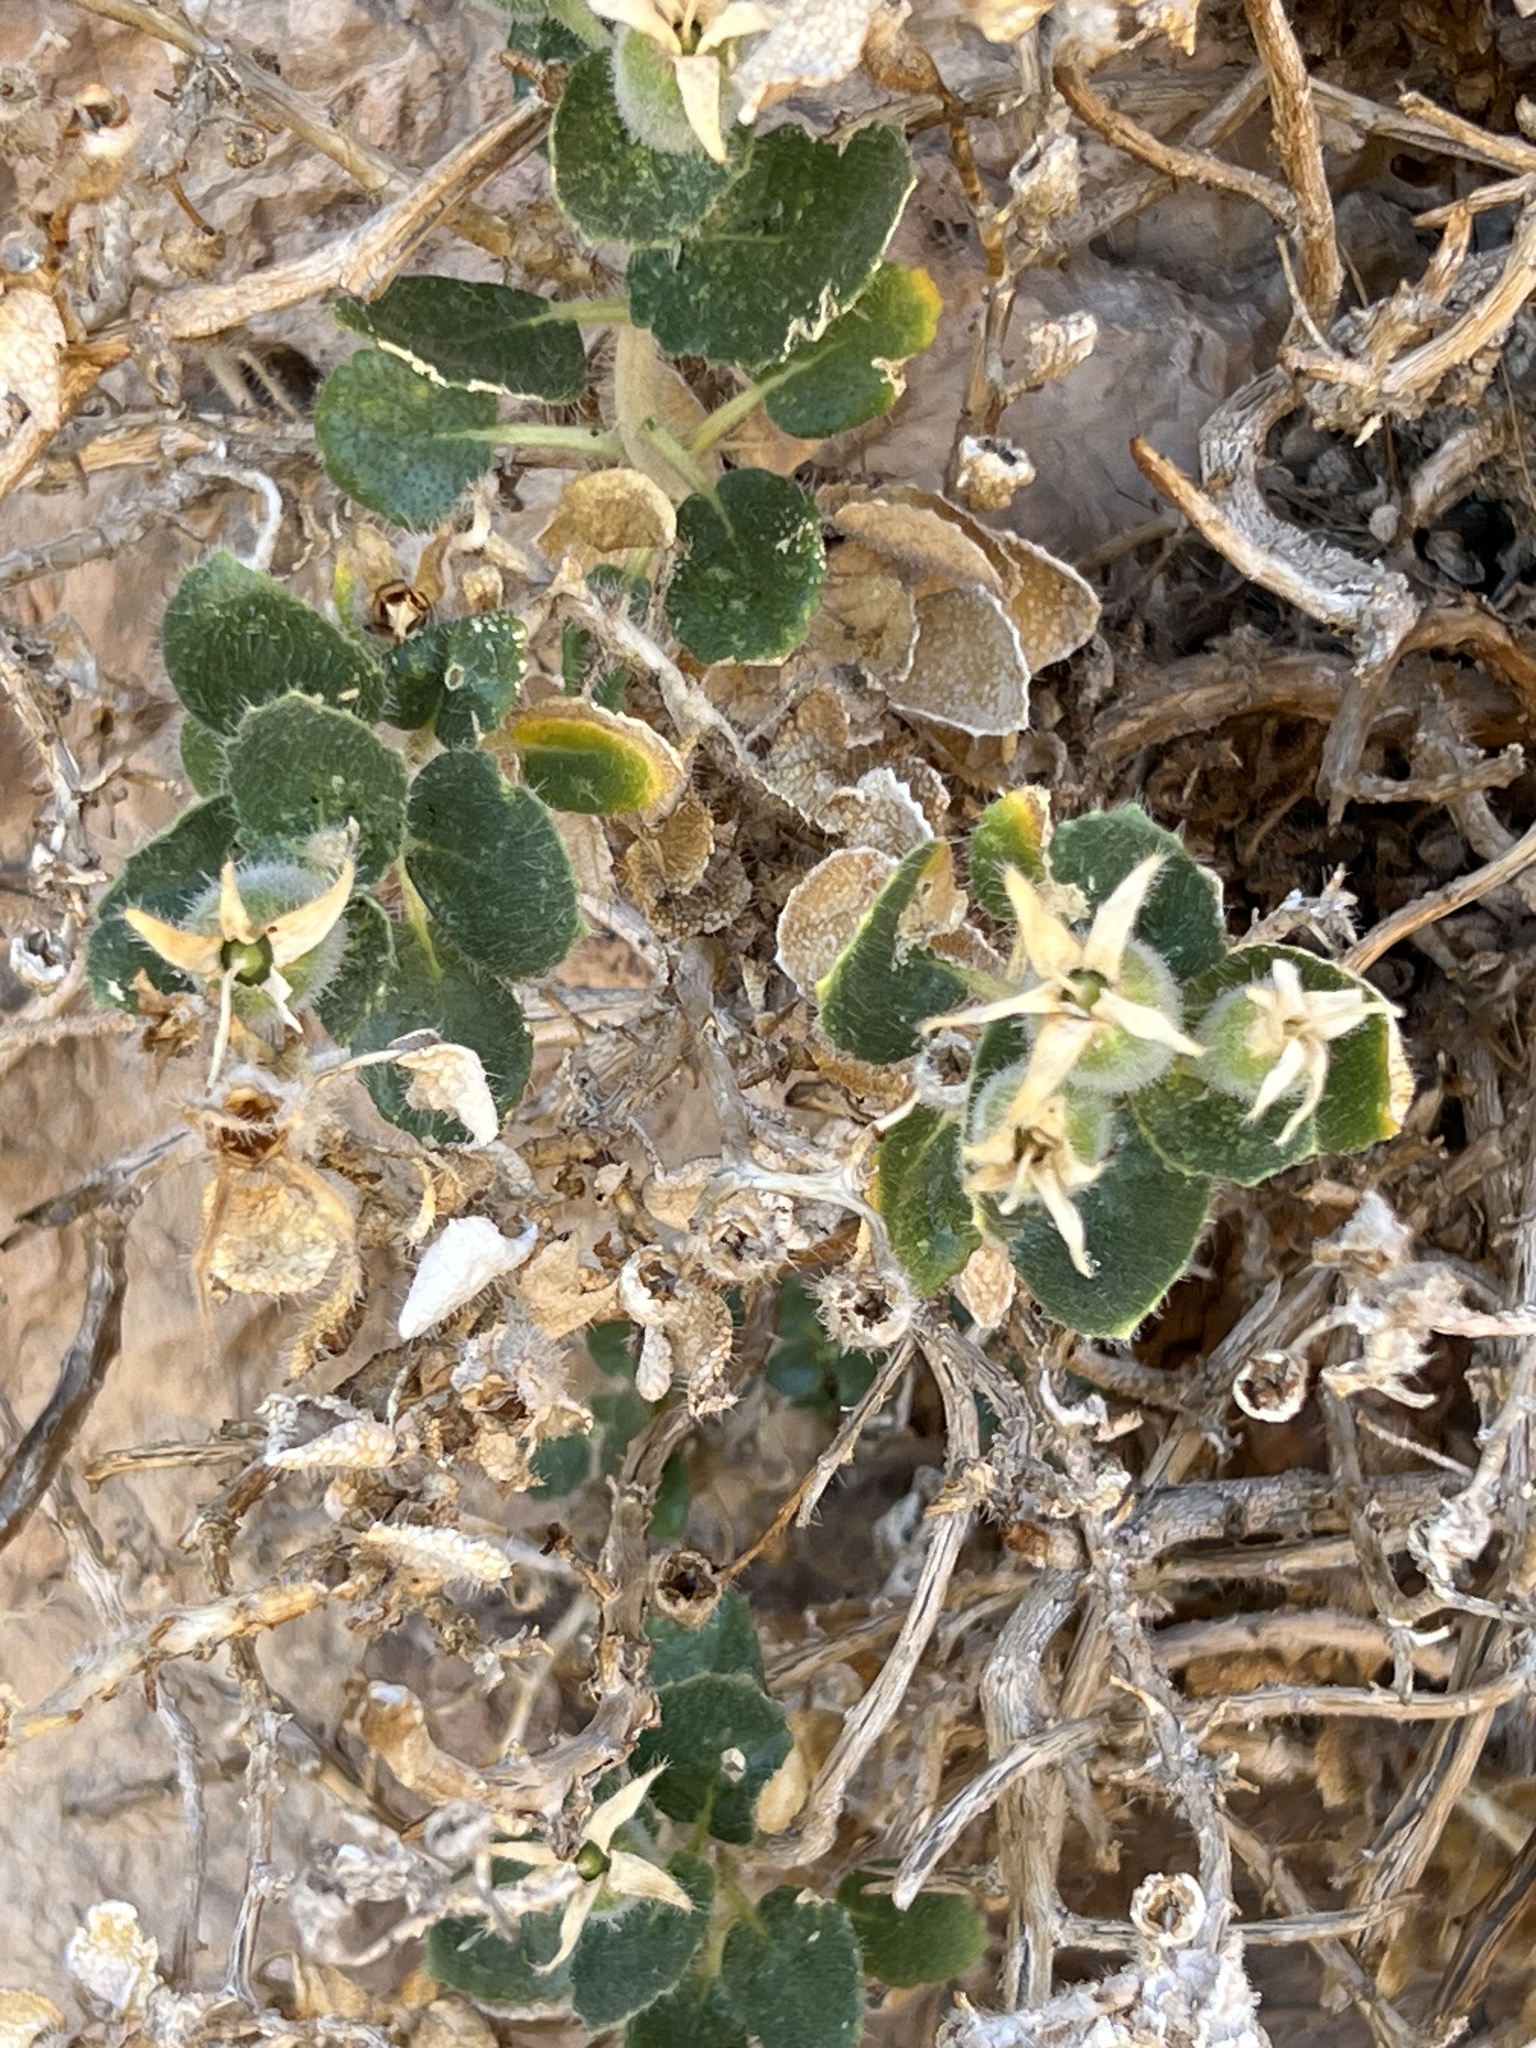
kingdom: Plantae
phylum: Tracheophyta
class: Magnoliopsida
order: Cornales
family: Loasaceae
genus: Eucnide
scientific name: Eucnide urens
